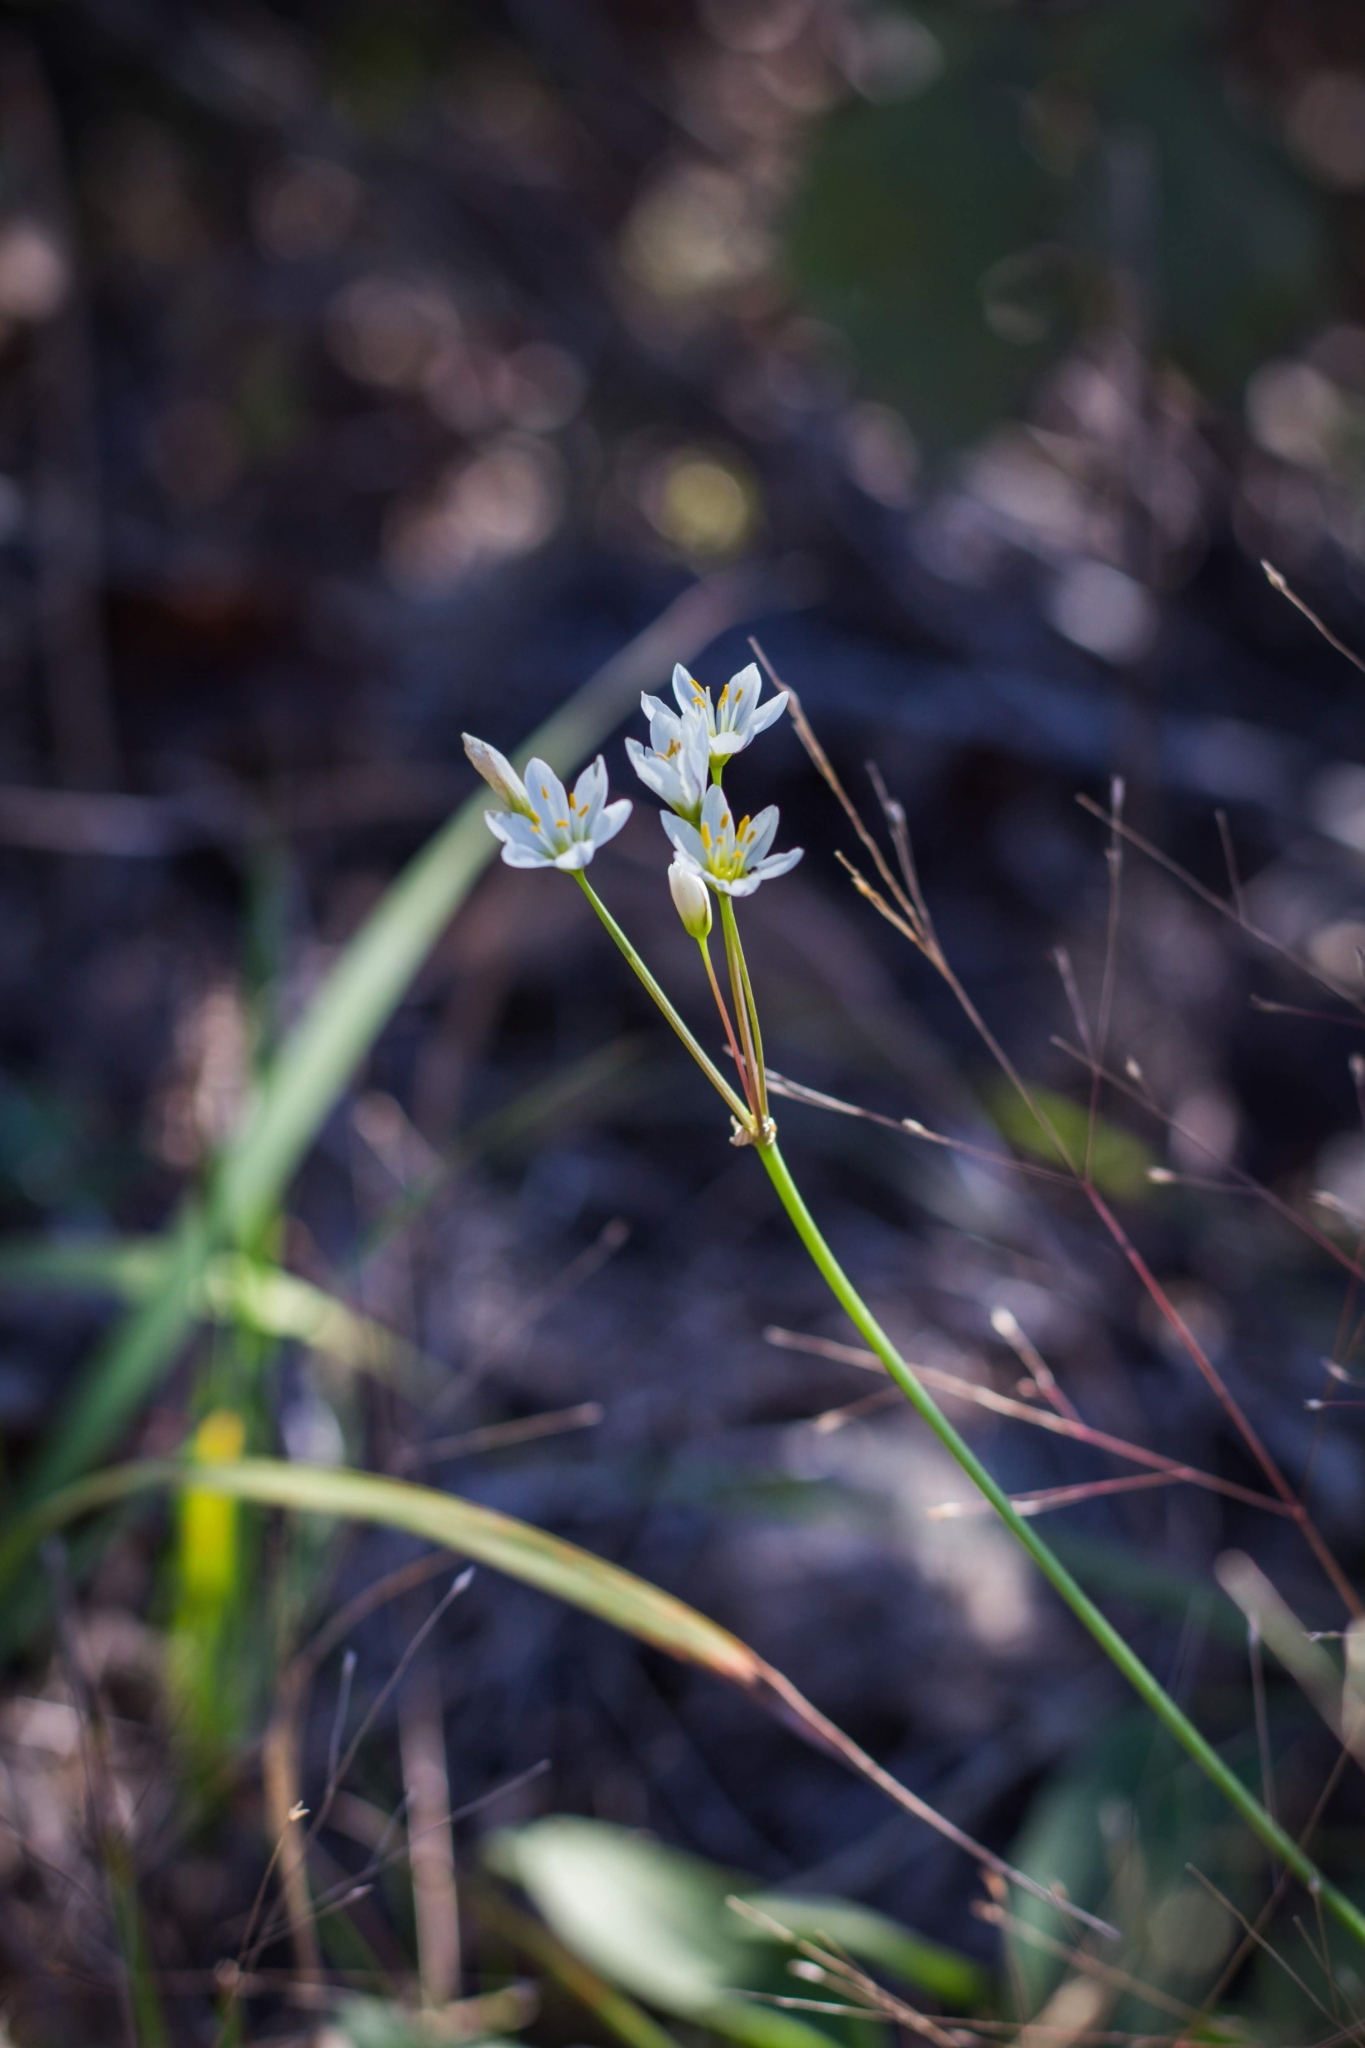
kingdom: Plantae
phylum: Tracheophyta
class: Liliopsida
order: Asparagales
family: Amaryllidaceae
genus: Nothoscordum
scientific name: Nothoscordum bivalve
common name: Crow-poison
